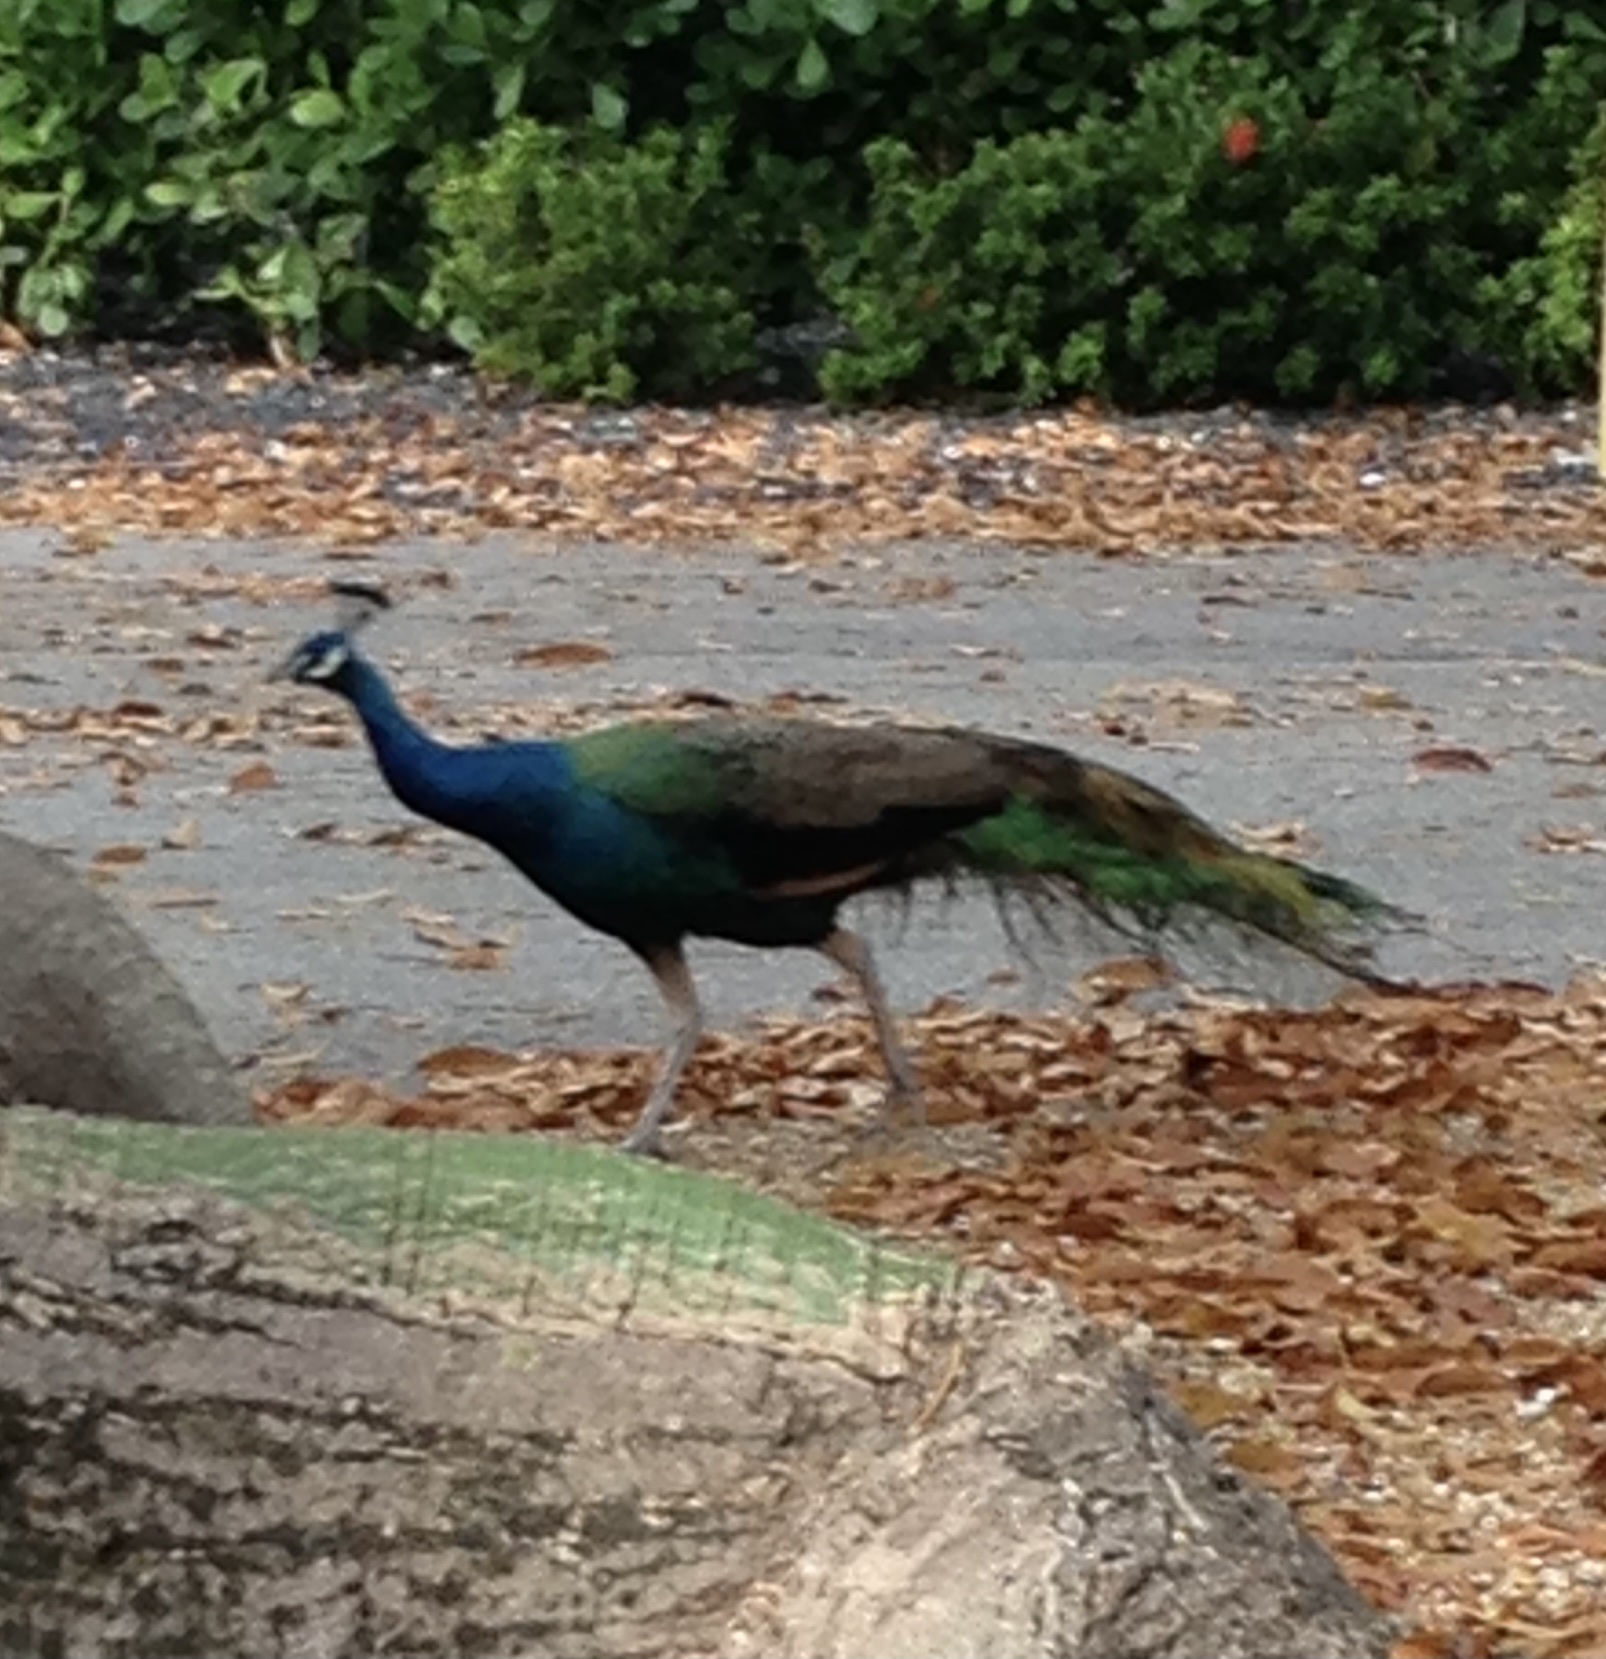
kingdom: Animalia
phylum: Chordata
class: Aves
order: Galliformes
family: Phasianidae
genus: Pavo
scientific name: Pavo cristatus
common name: Indian peafowl
